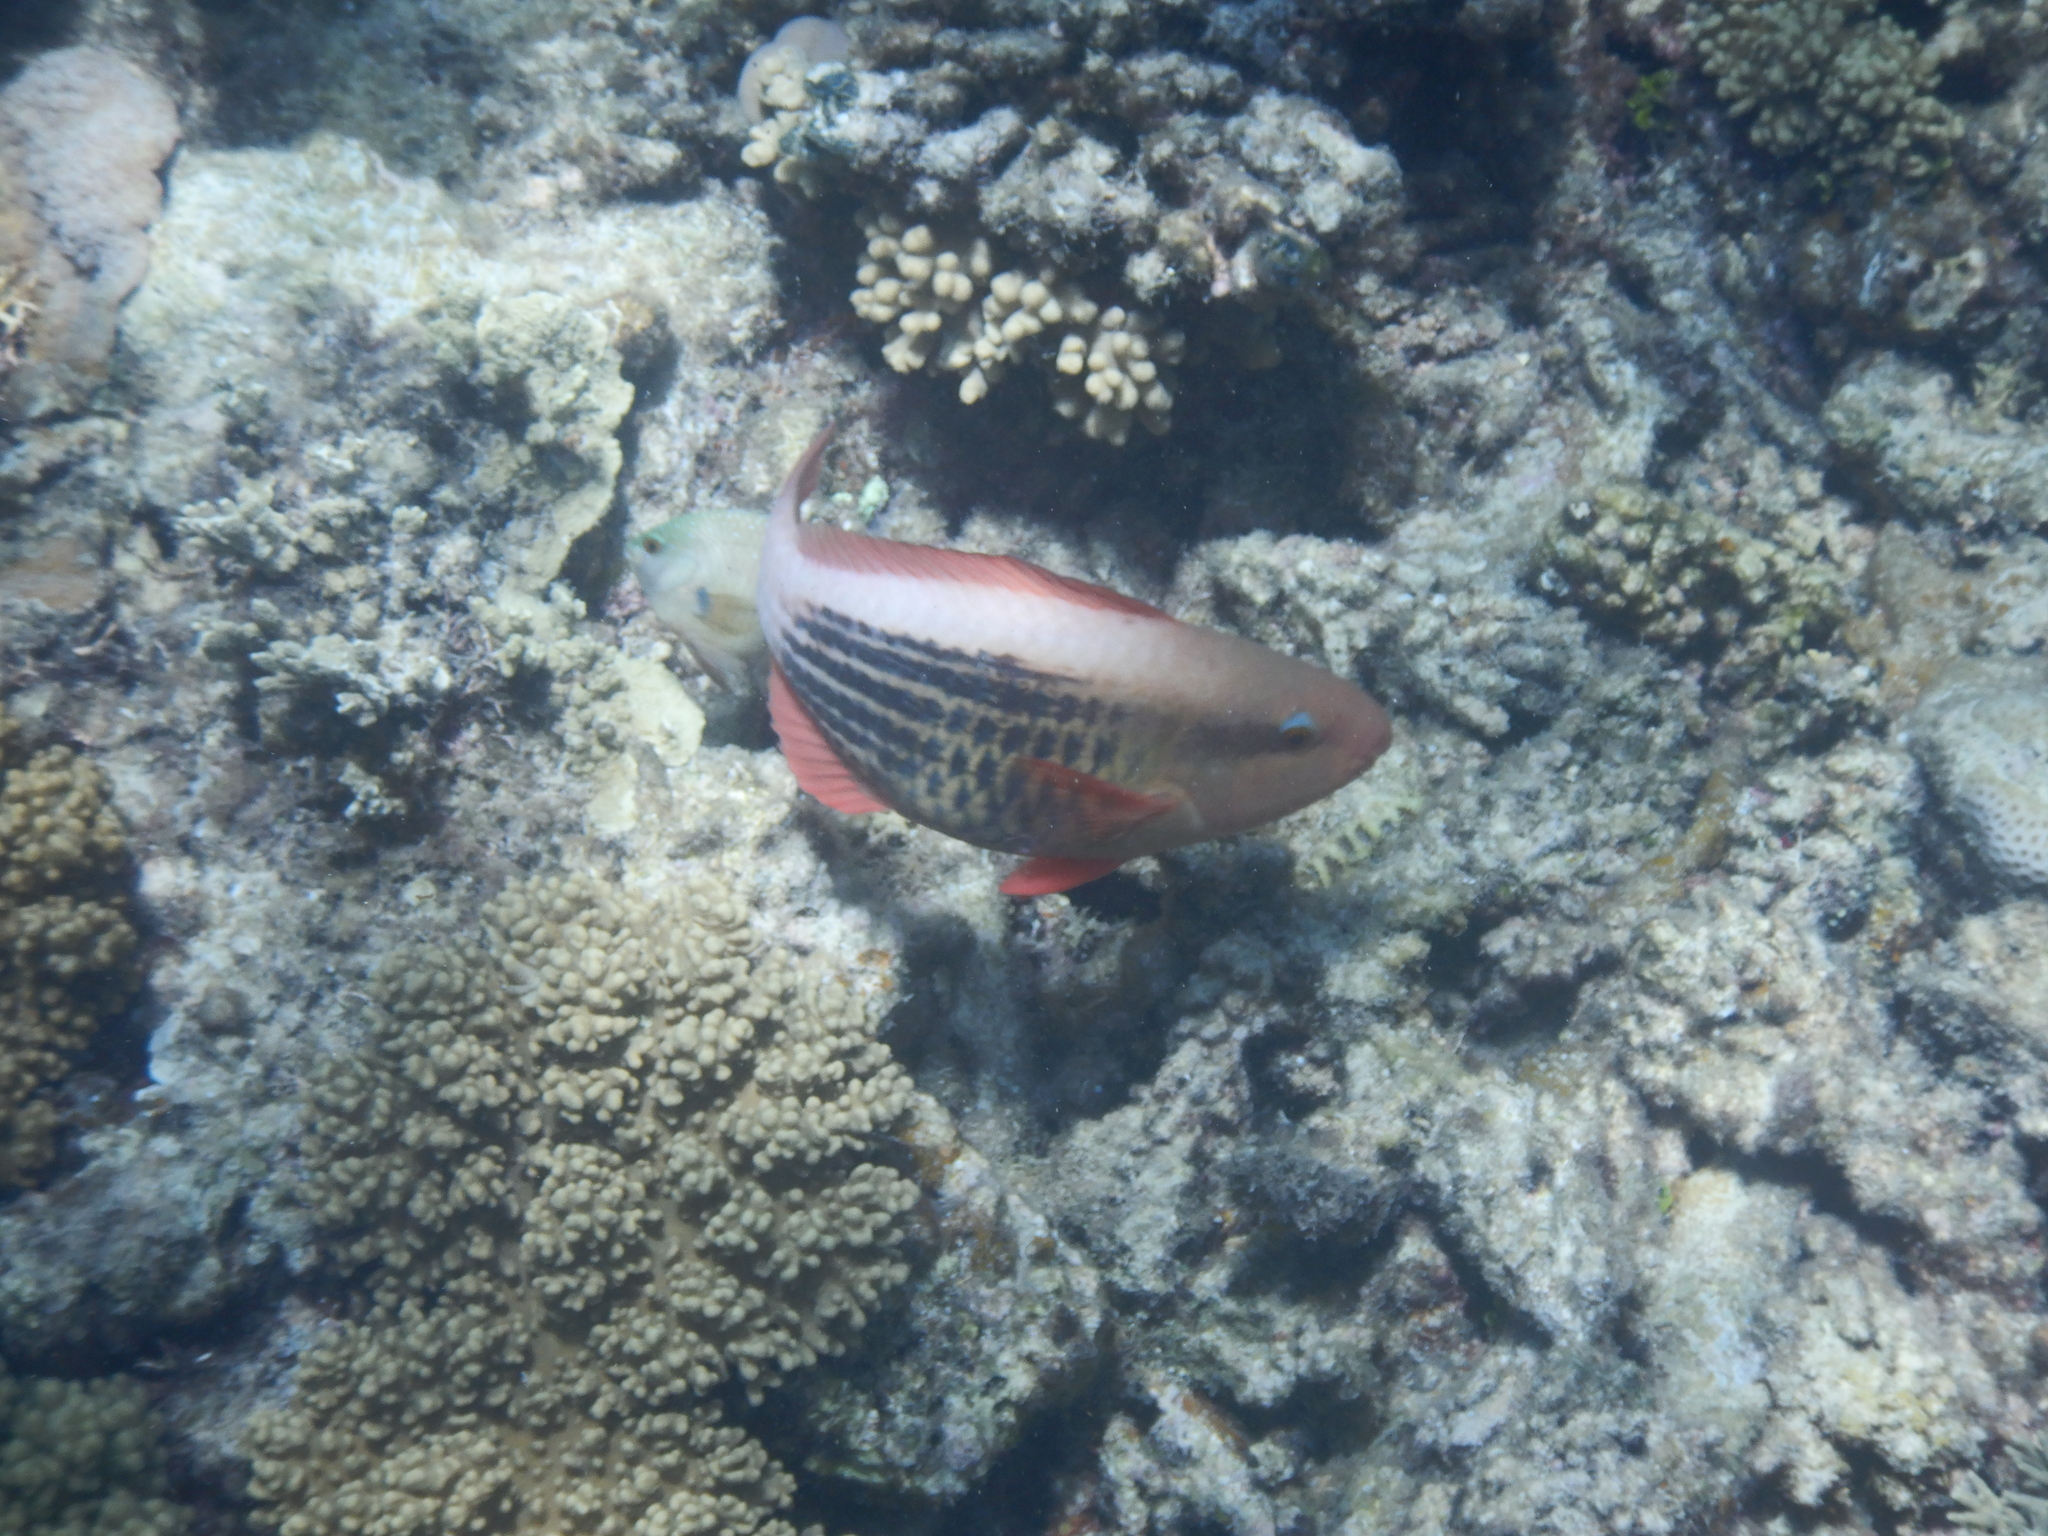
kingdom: Animalia
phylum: Chordata
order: Perciformes
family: Scaridae
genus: Scarus
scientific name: Scarus frenatus
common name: Bridled parrotfish
